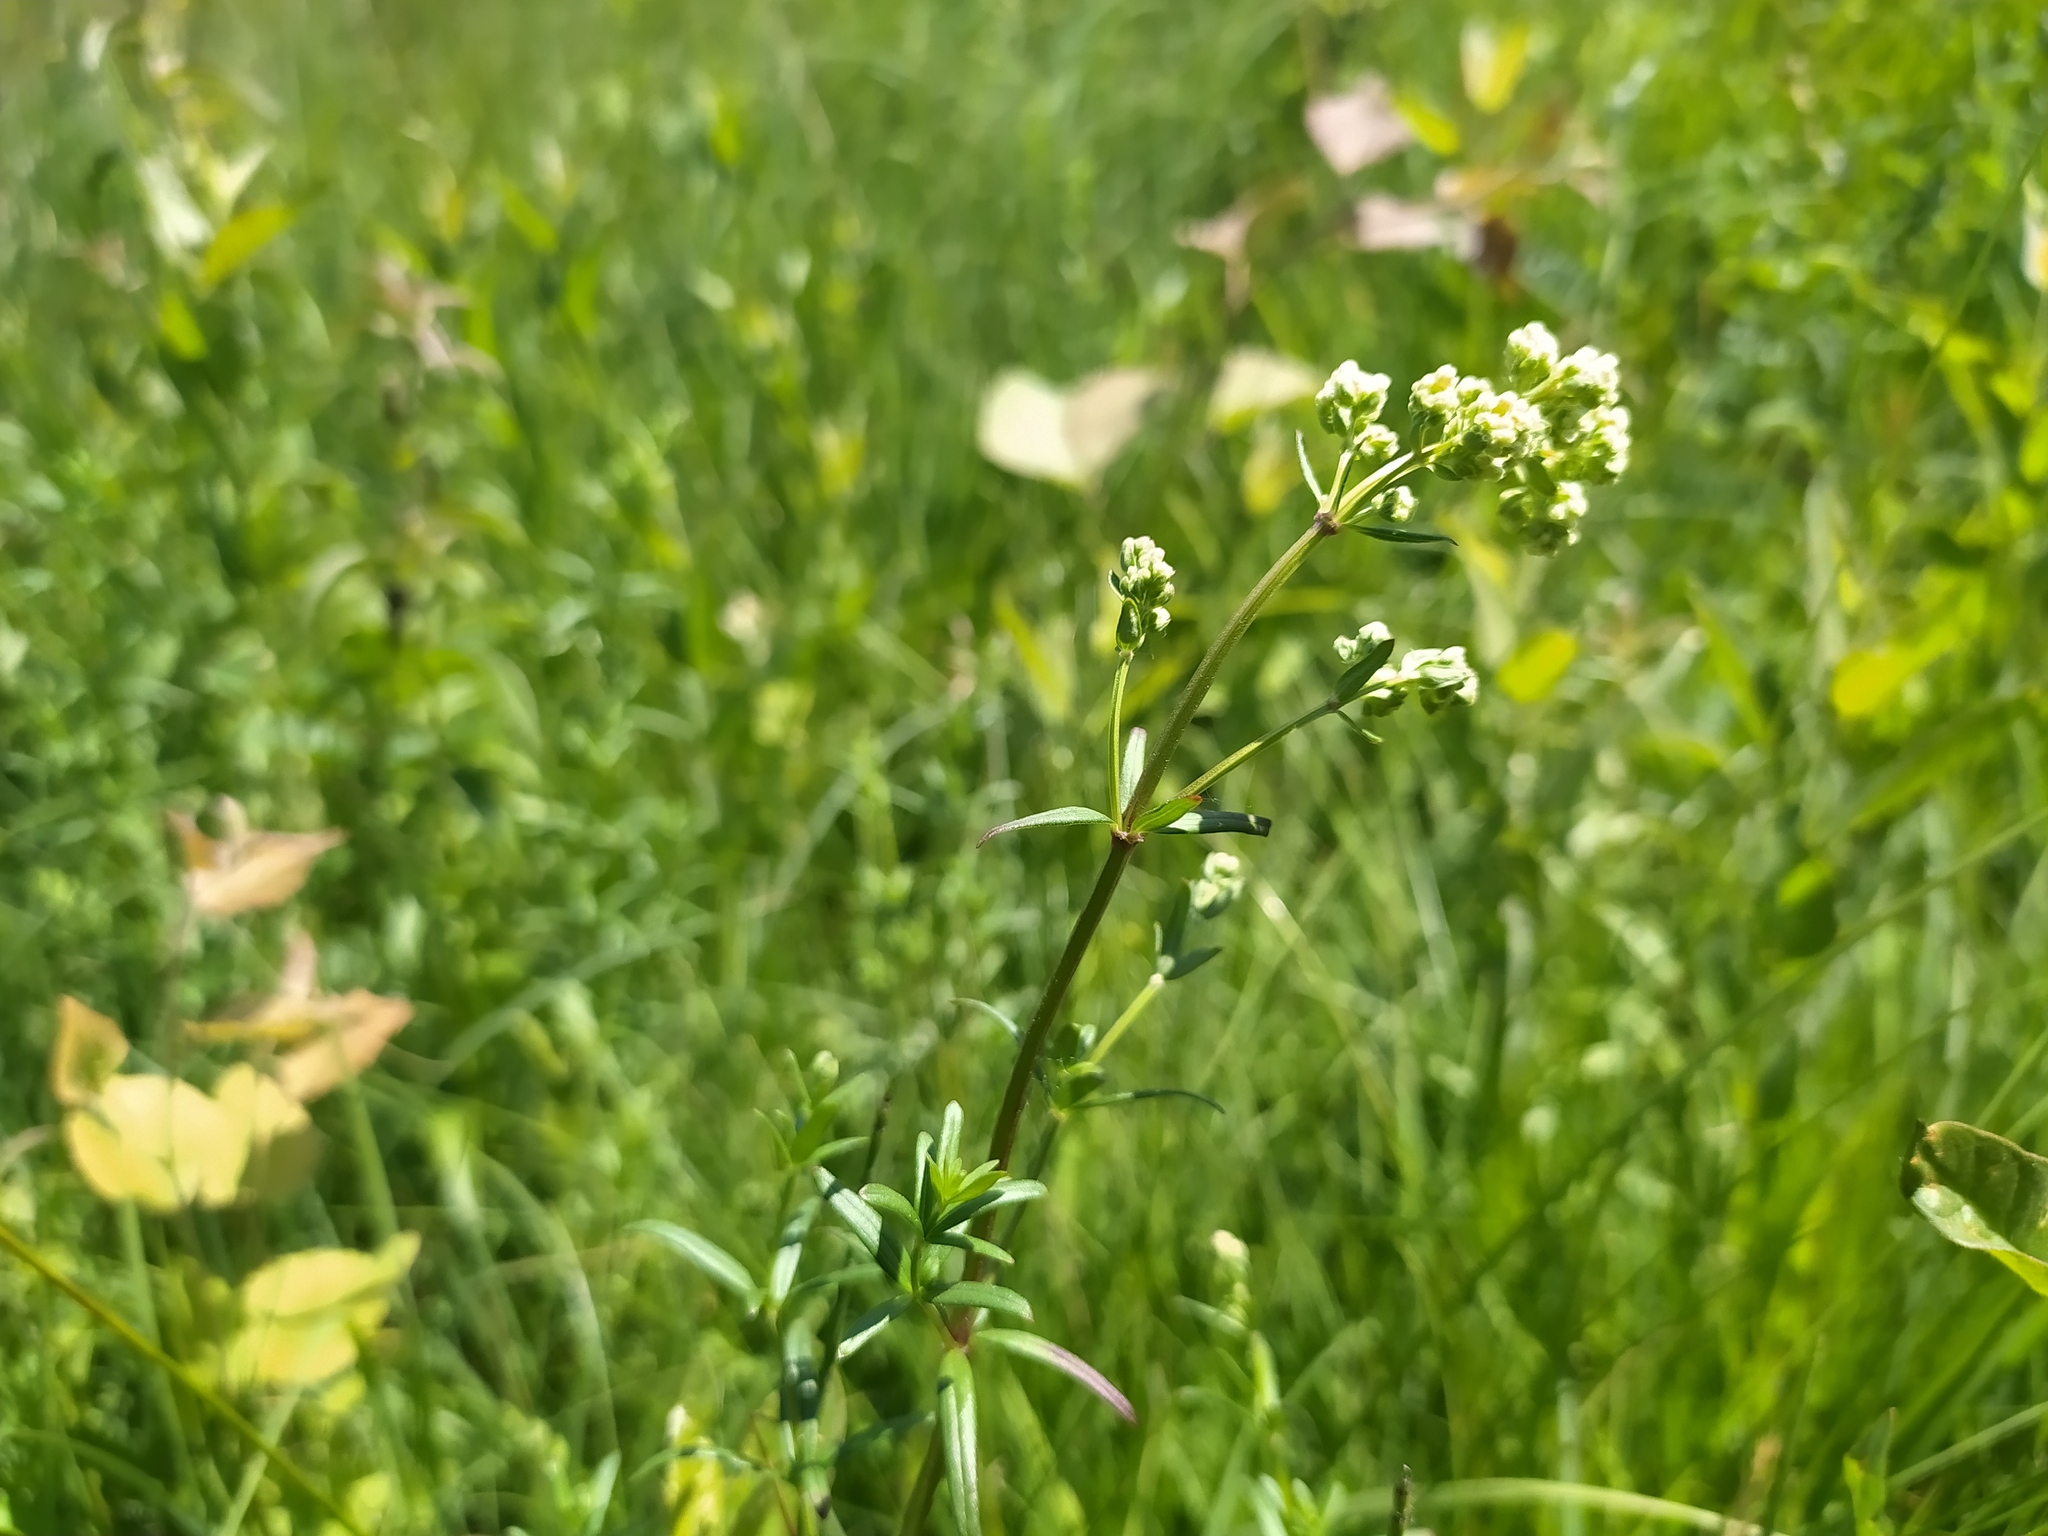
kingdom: Plantae
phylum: Tracheophyta
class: Magnoliopsida
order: Gentianales
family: Rubiaceae
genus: Galium
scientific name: Galium boreale
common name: Northern bedstraw
